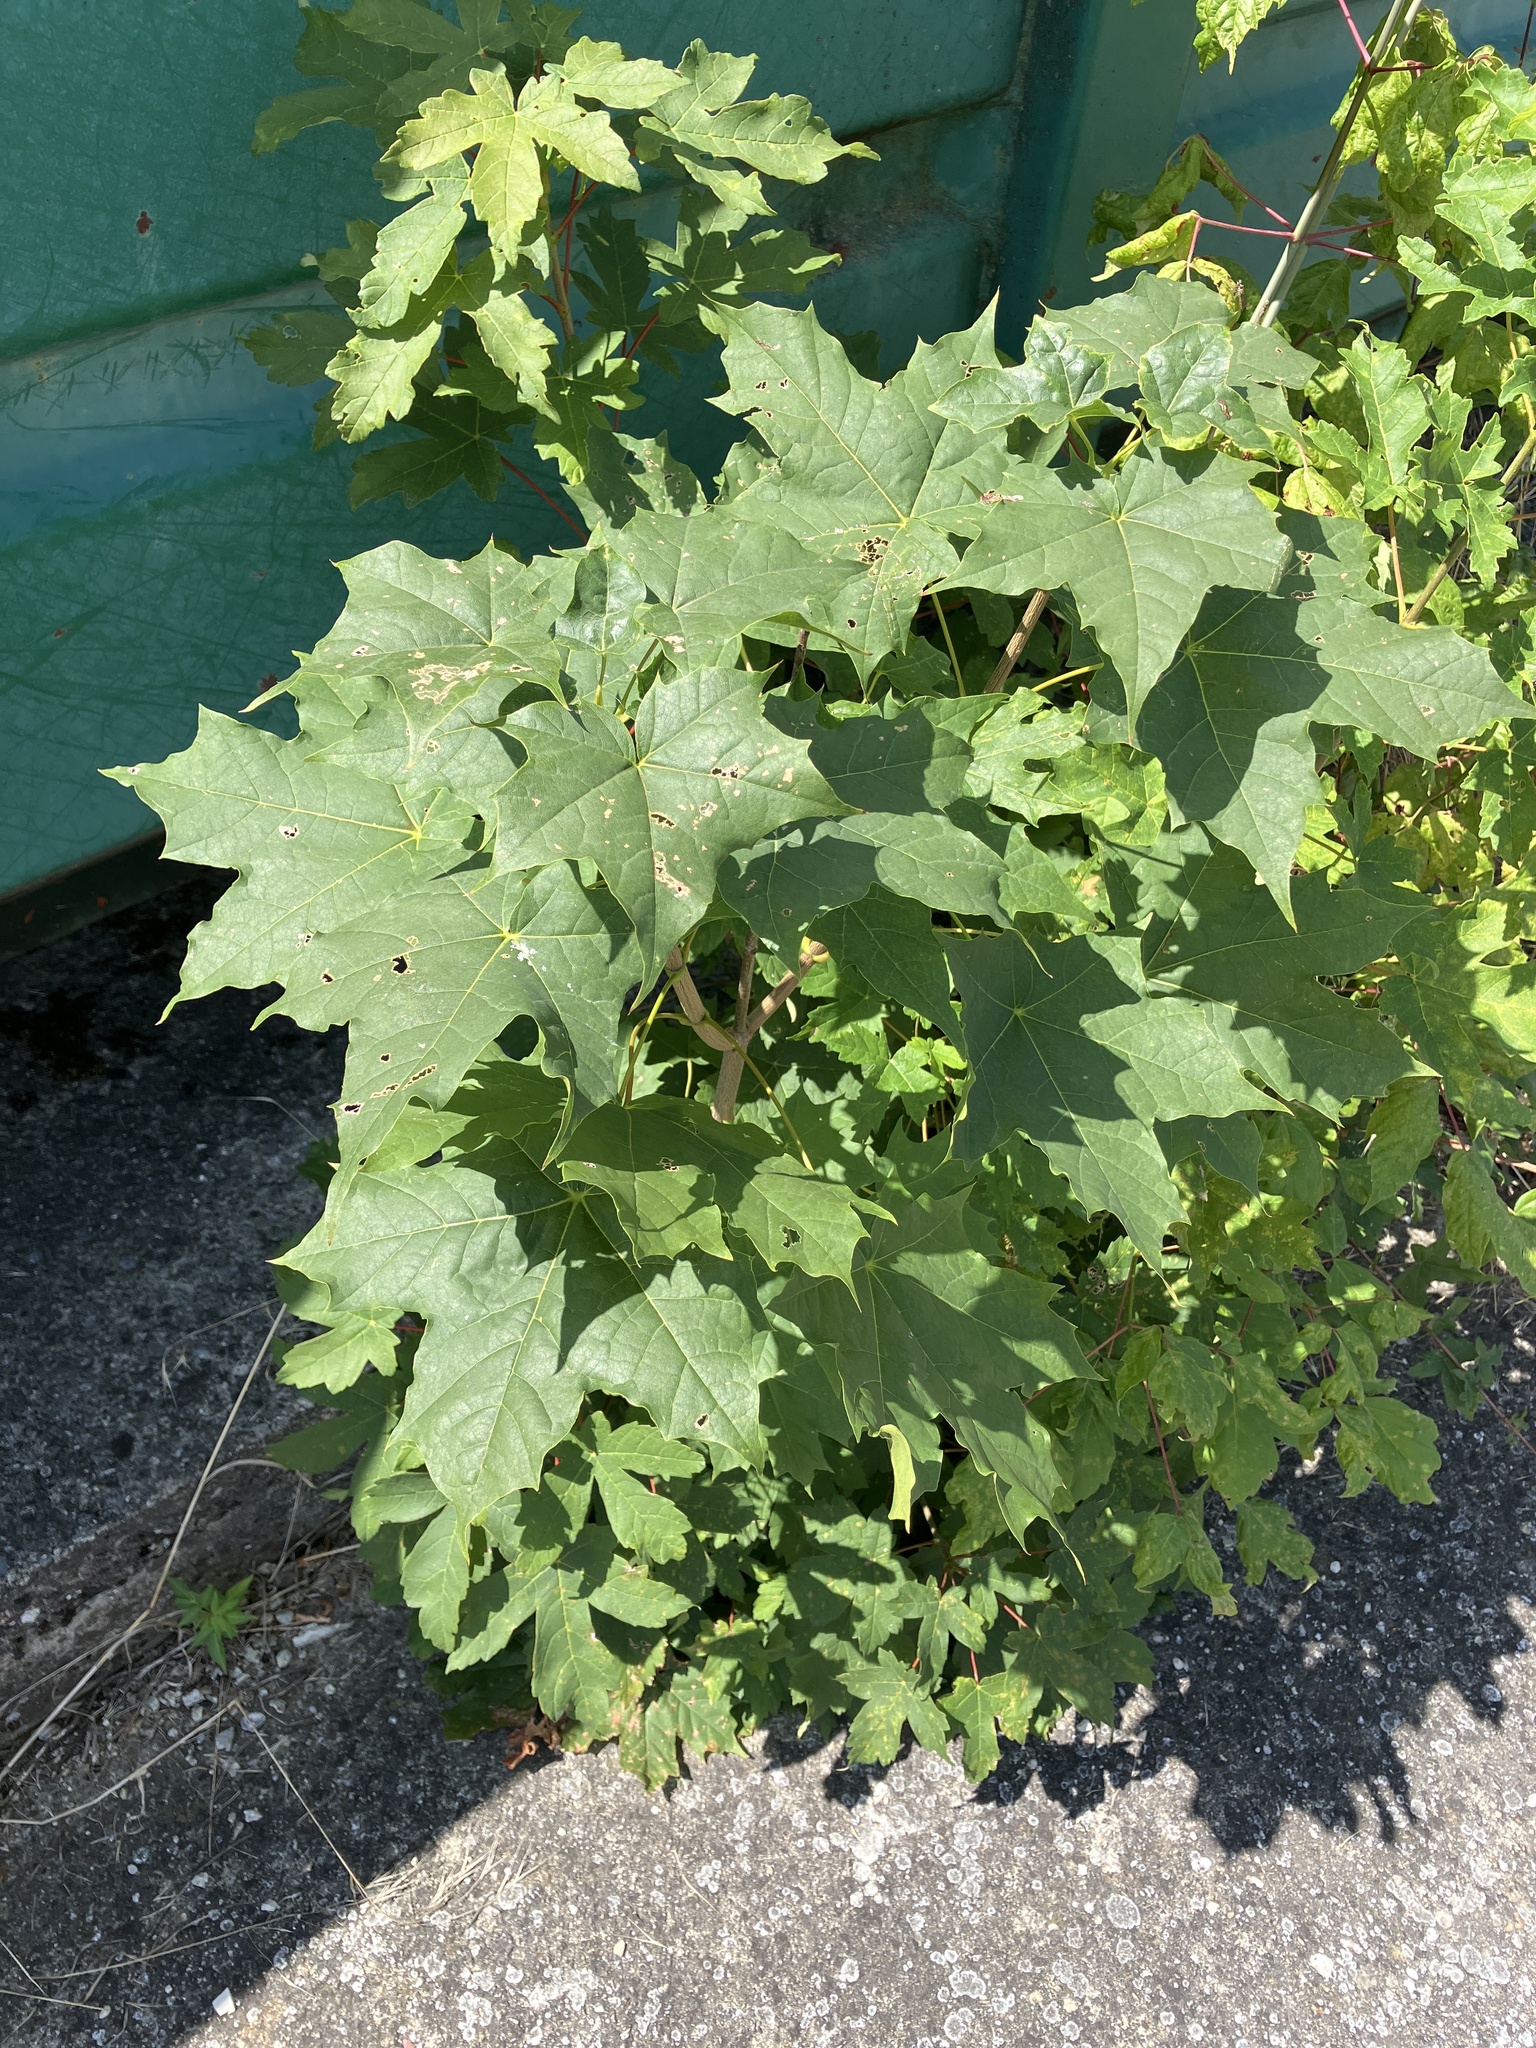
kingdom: Plantae
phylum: Tracheophyta
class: Magnoliopsida
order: Sapindales
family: Sapindaceae
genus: Acer
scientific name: Acer platanoides
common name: Norway maple
